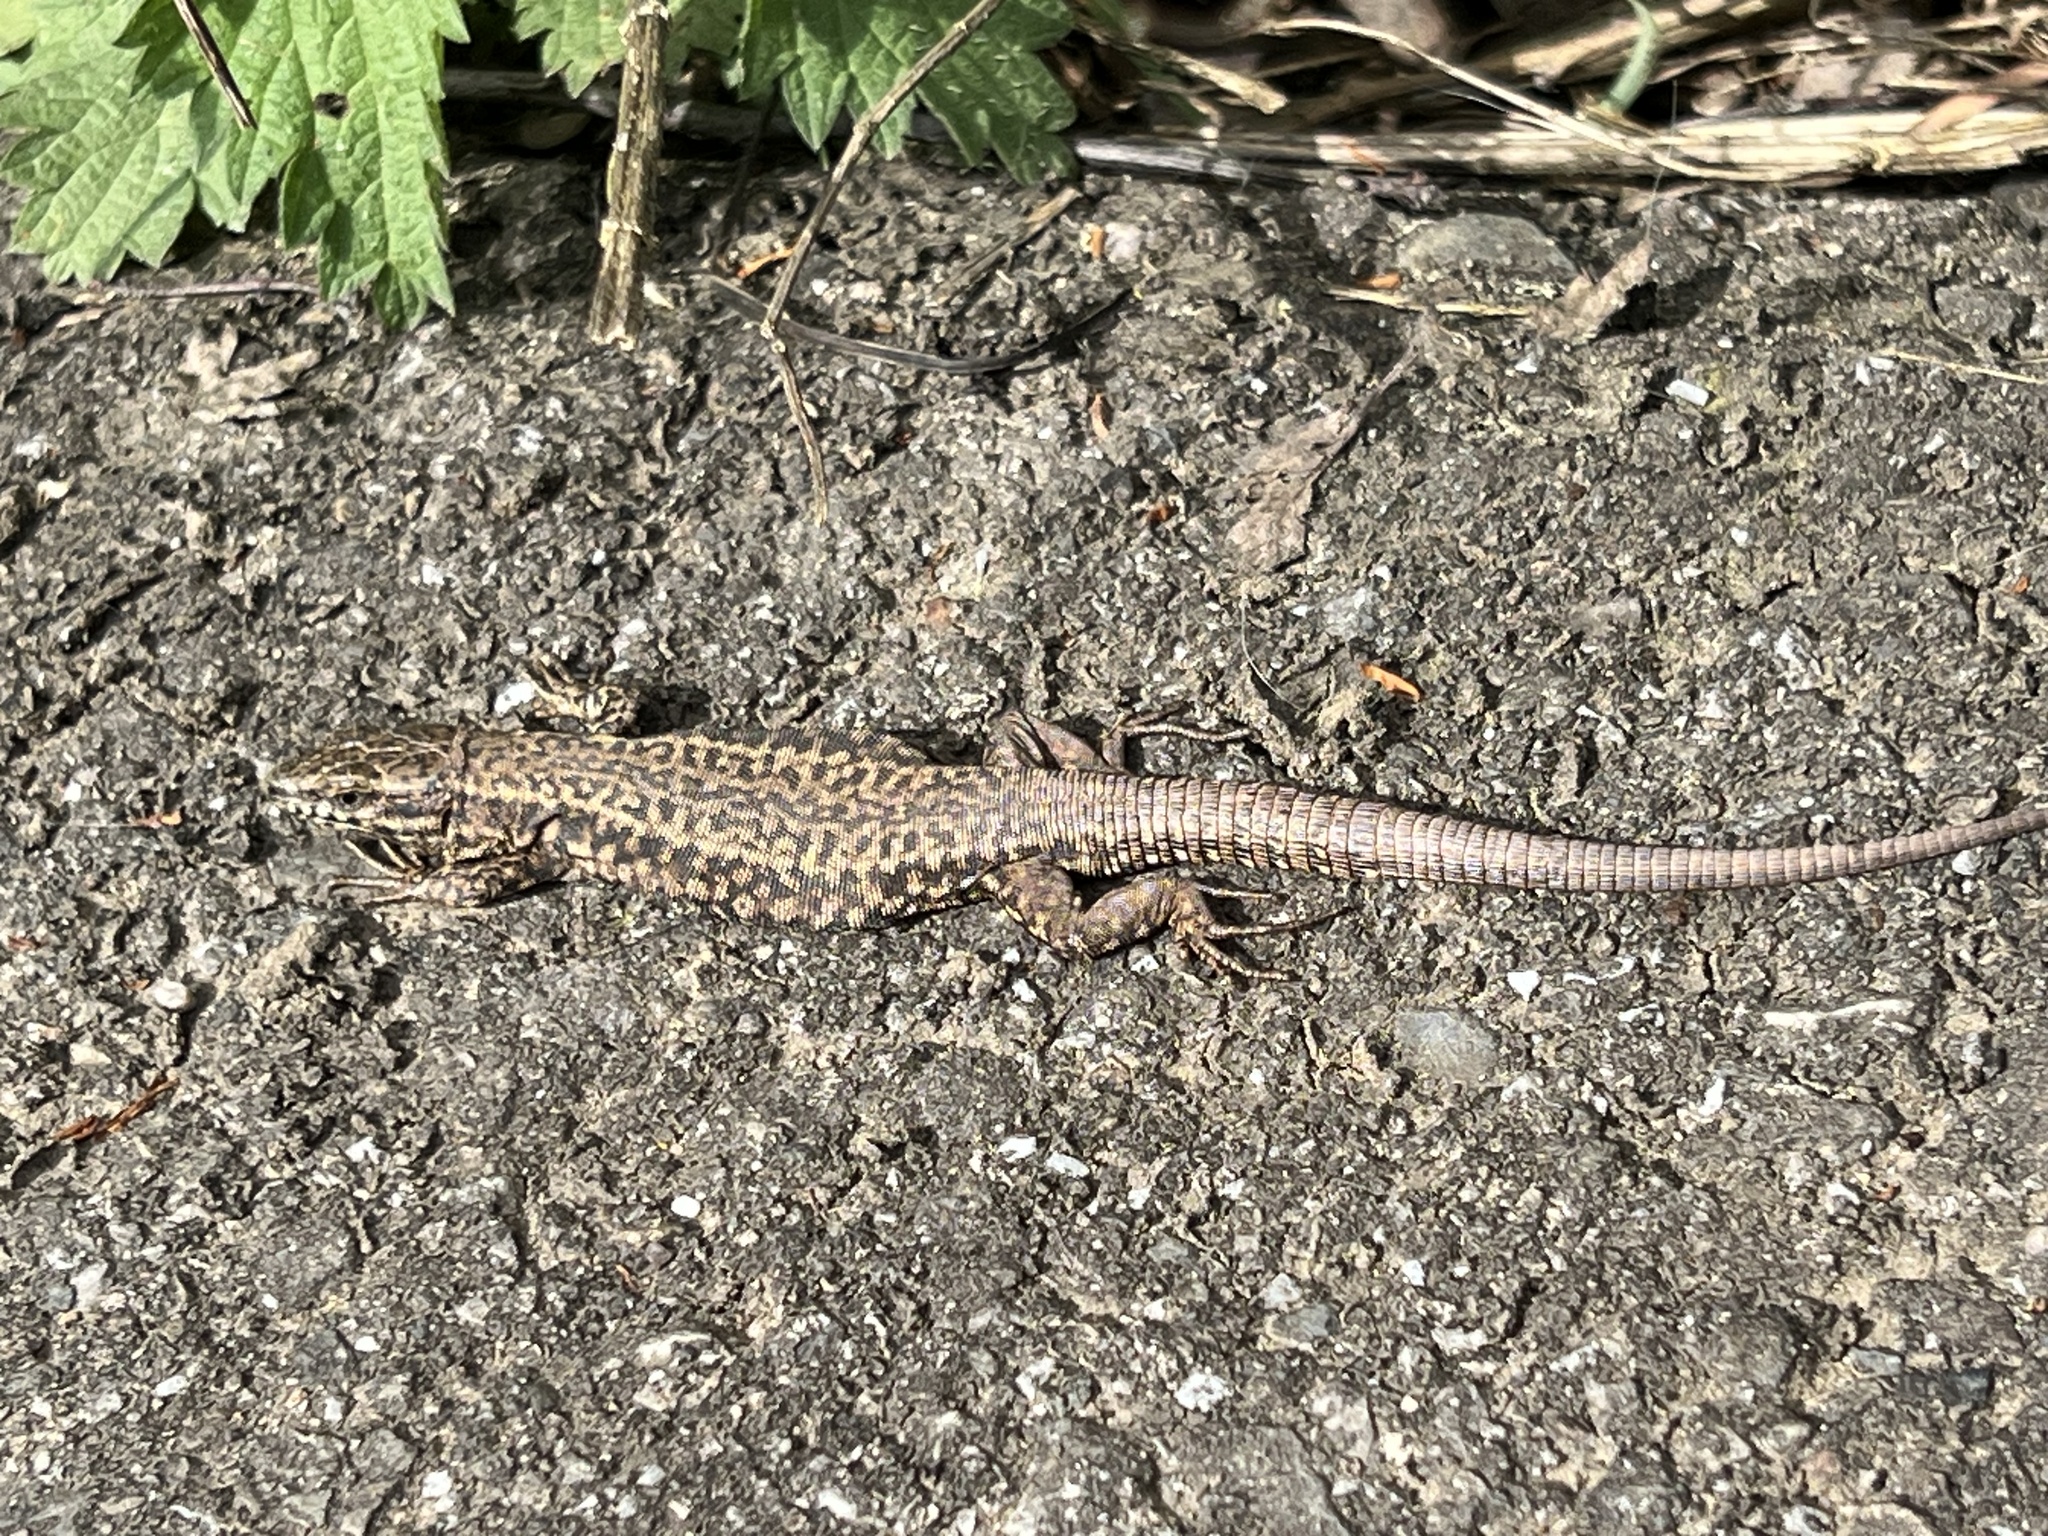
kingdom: Animalia
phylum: Chordata
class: Squamata
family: Lacertidae
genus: Podarcis
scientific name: Podarcis muralis
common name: Common wall lizard
